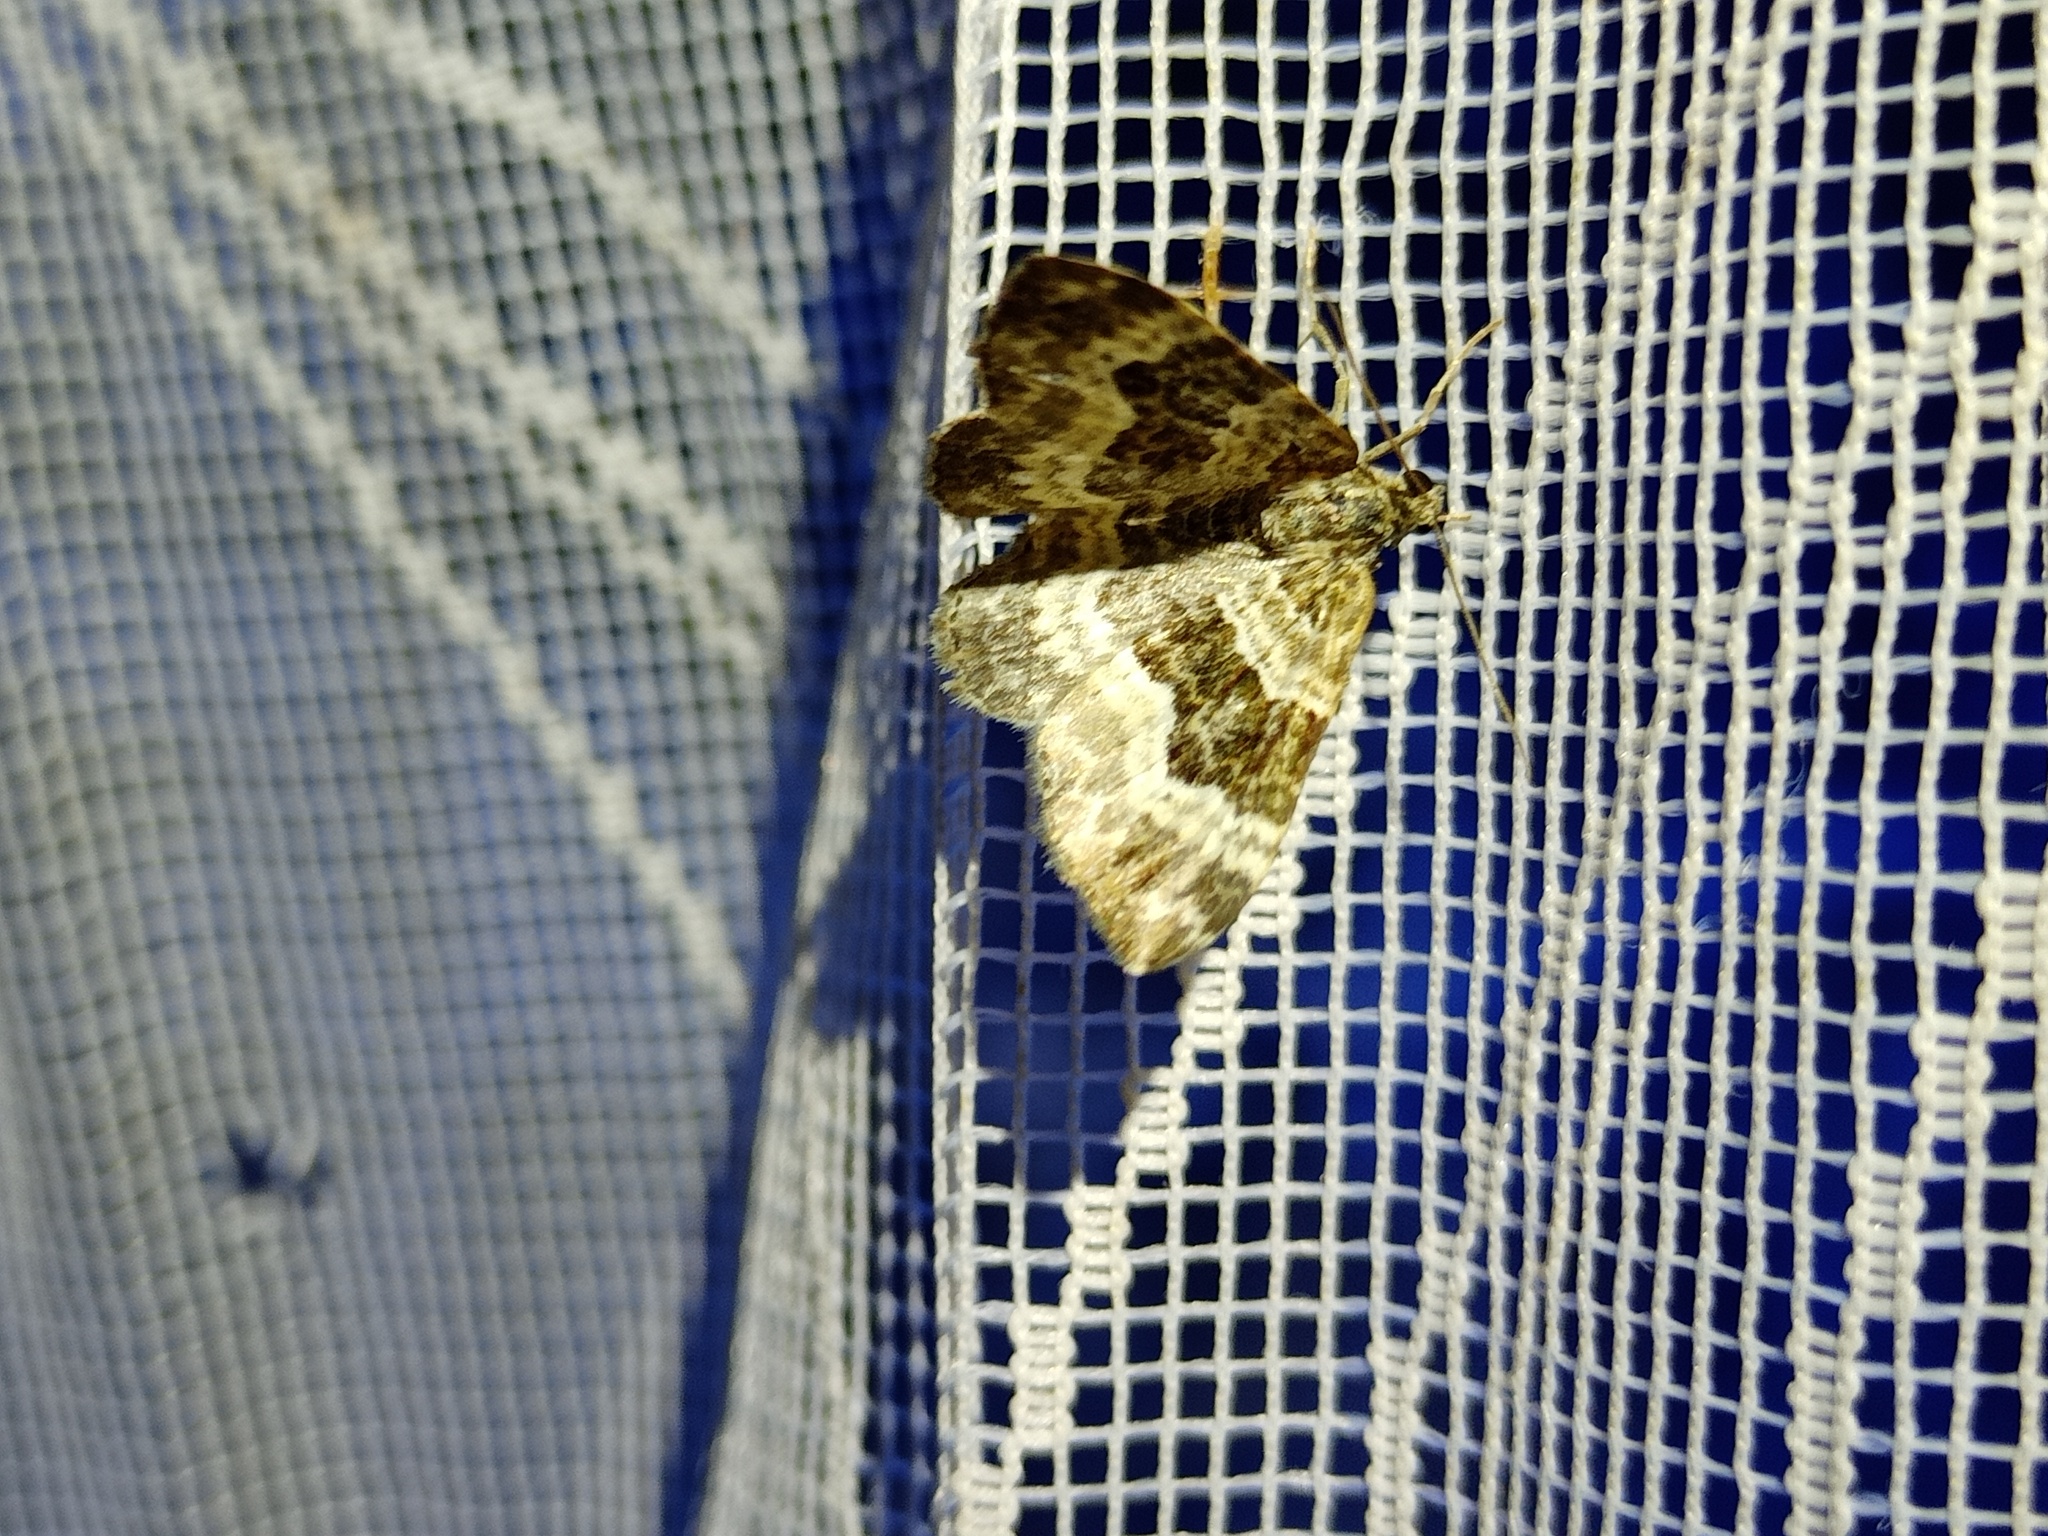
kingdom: Animalia
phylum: Arthropoda
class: Insecta
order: Lepidoptera
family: Geometridae
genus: Epirrhoe
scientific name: Epirrhoe alternata
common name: Common carpet
